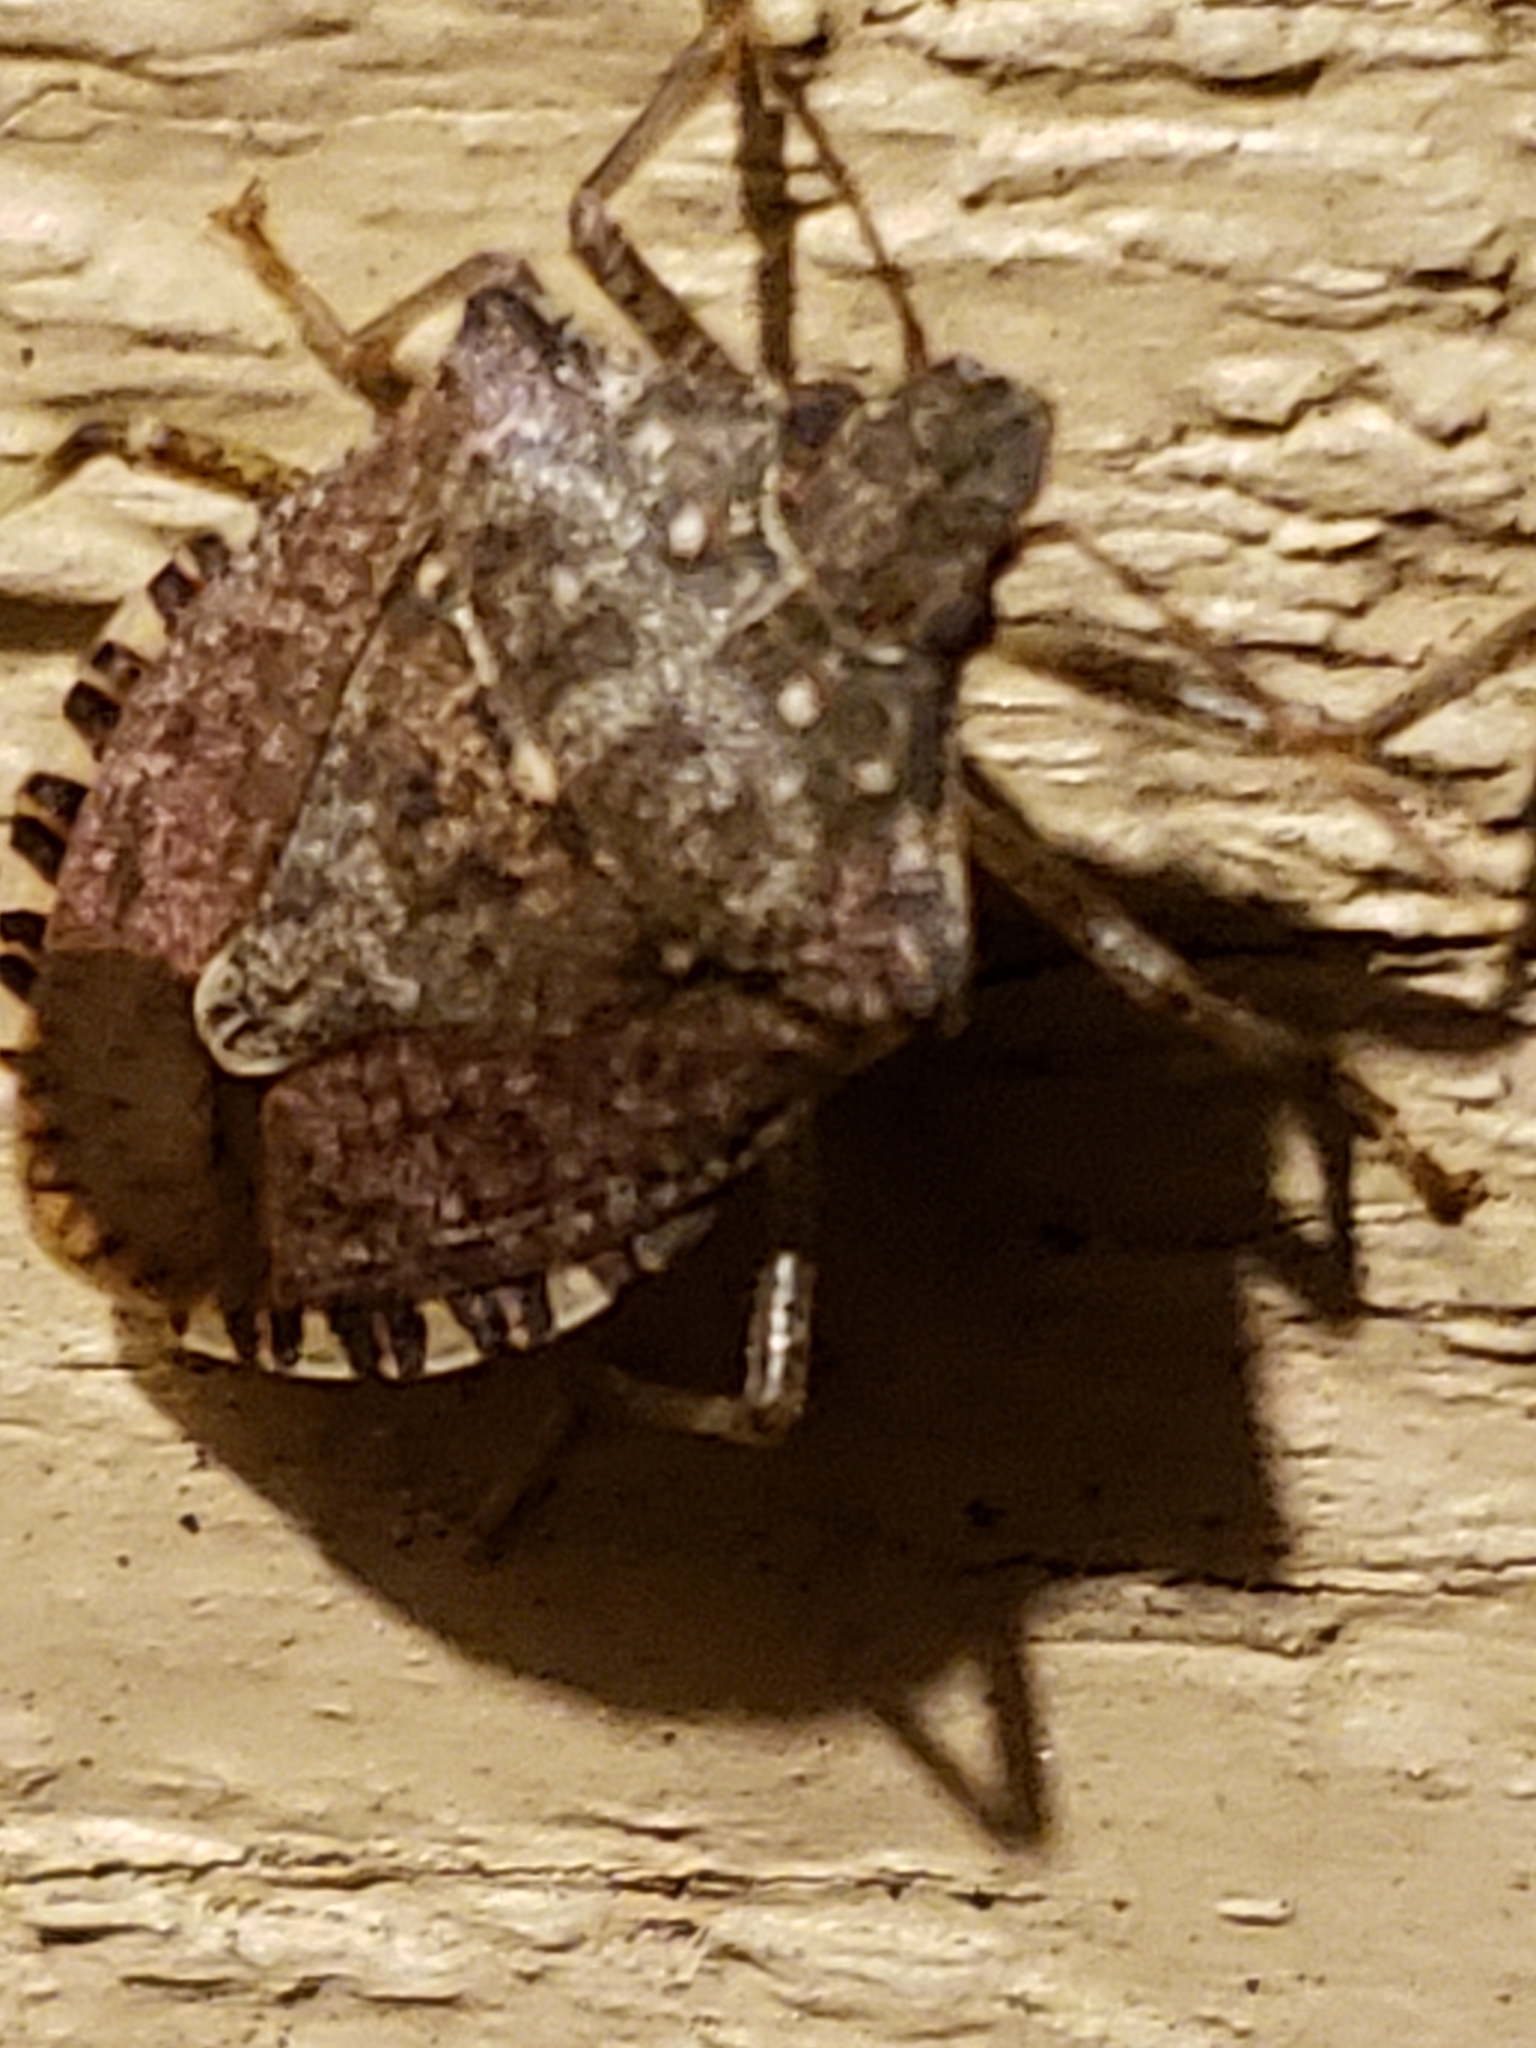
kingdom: Animalia
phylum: Arthropoda
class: Insecta
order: Hemiptera
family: Pentatomidae
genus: Halyomorpha
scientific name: Halyomorpha halys
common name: Brown marmorated stink bug
